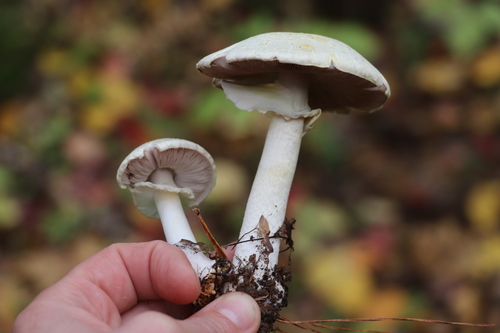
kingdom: Fungi
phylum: Basidiomycota
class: Agaricomycetes
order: Agaricales
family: Agaricaceae
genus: Agaricus
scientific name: Agaricus sylvicola
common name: Wood mushroom
